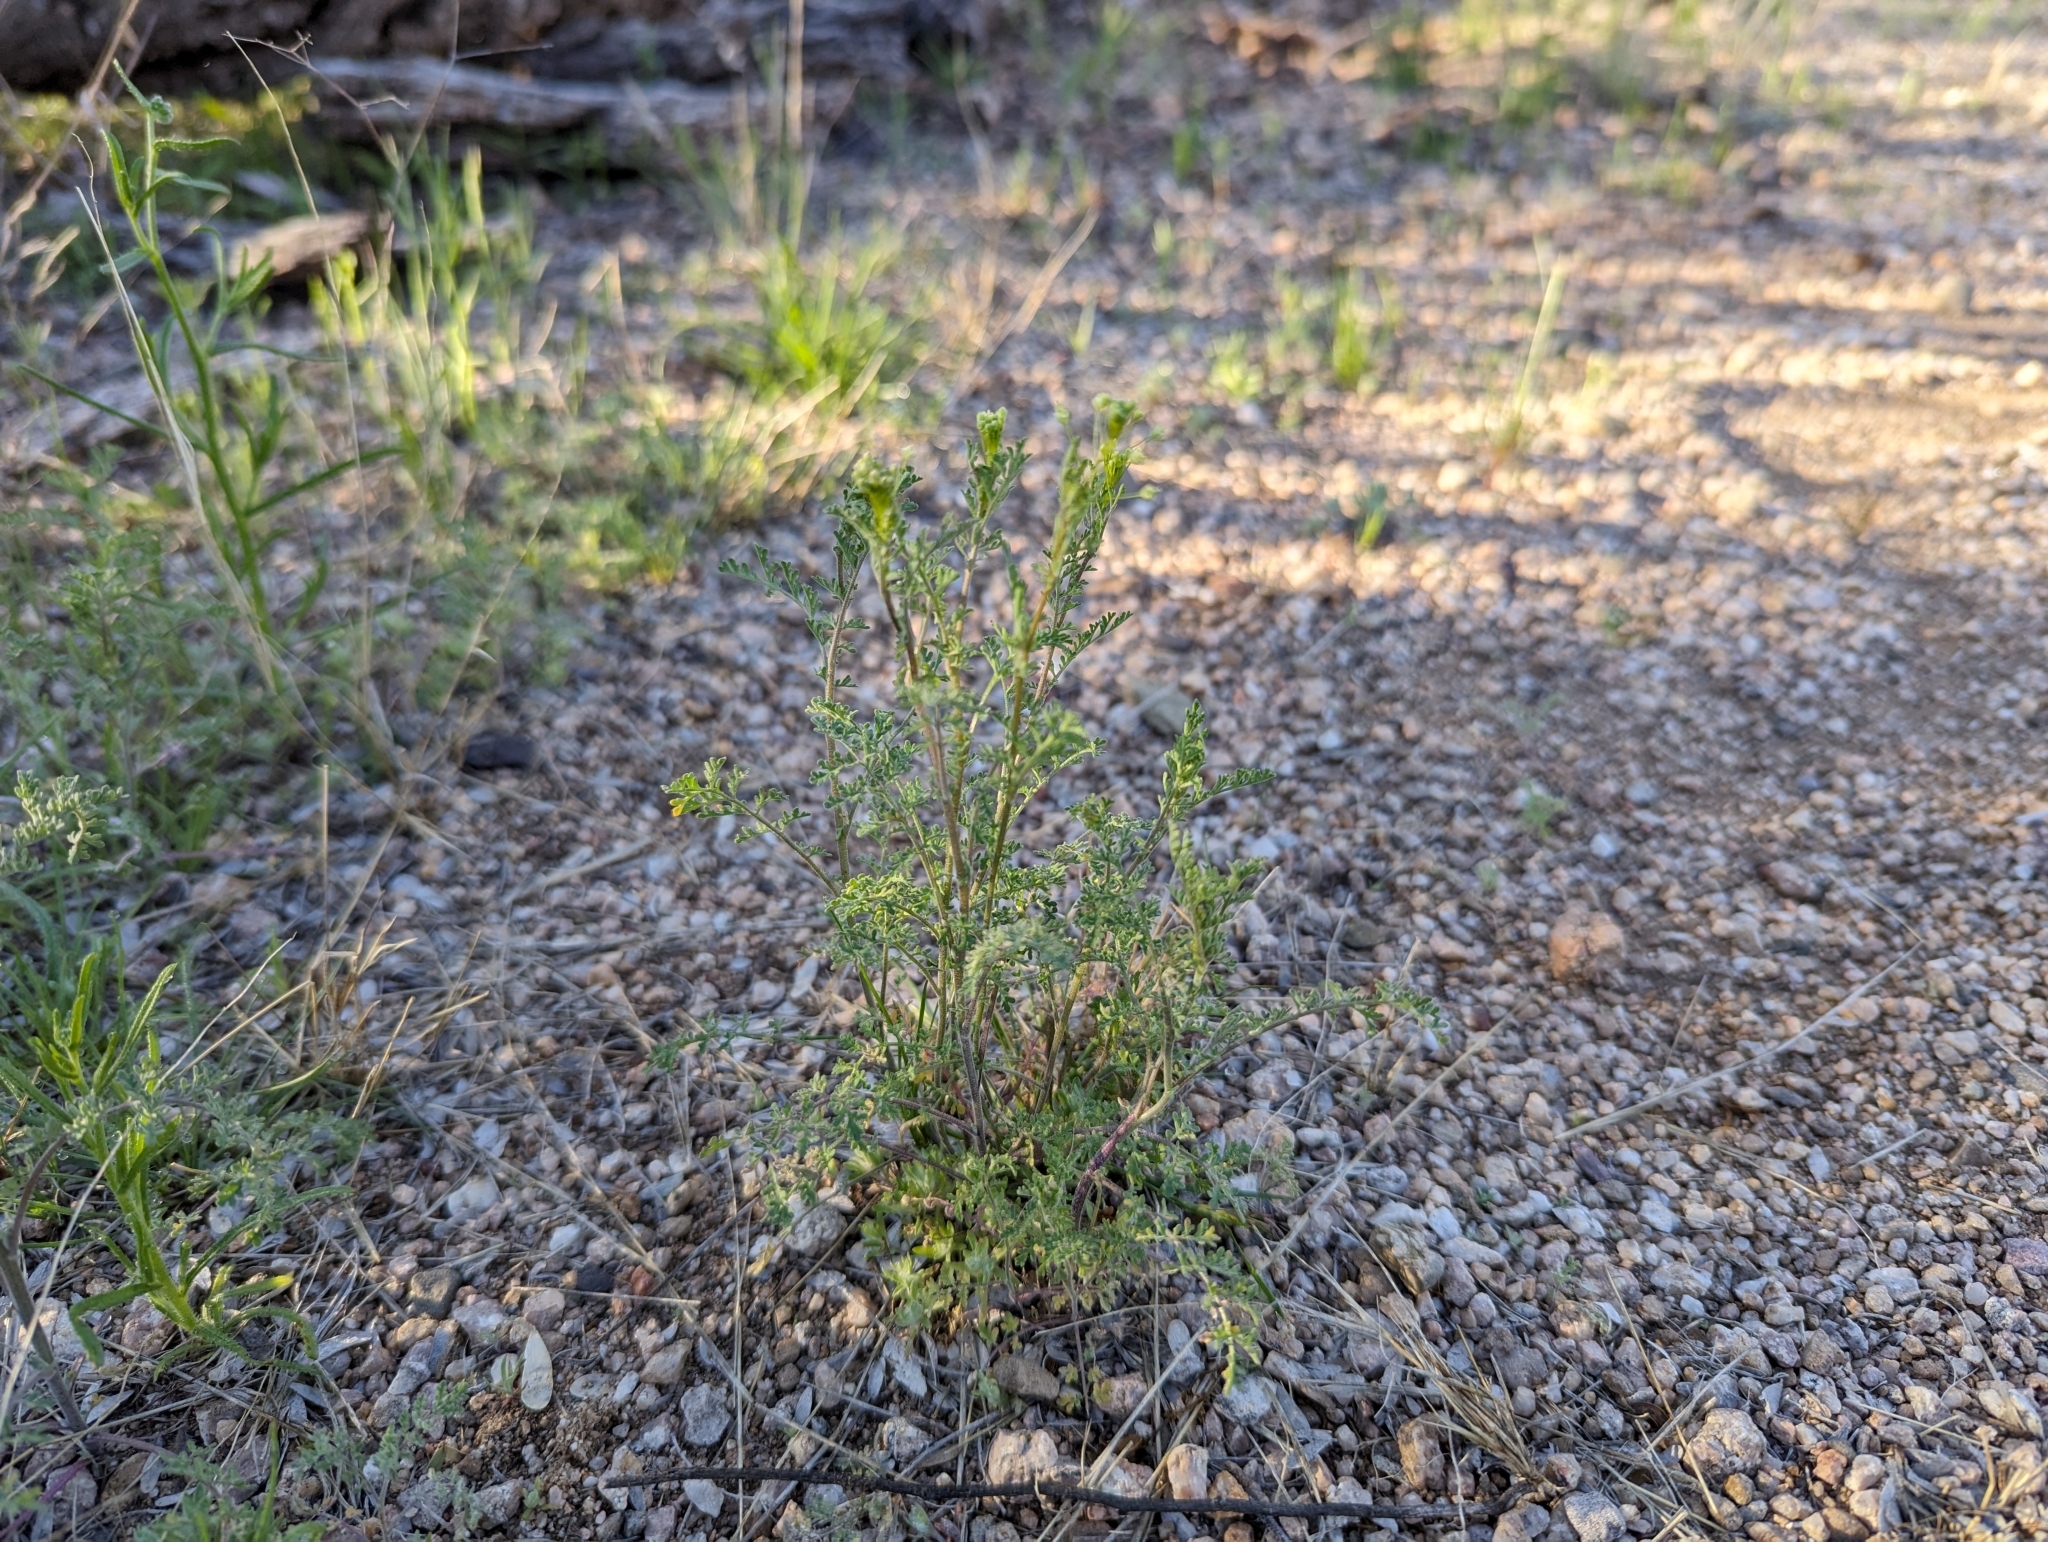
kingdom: Plantae
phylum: Tracheophyta
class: Magnoliopsida
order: Brassicales
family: Brassicaceae
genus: Descurainia
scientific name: Descurainia pinnata
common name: Western tansy mustard
